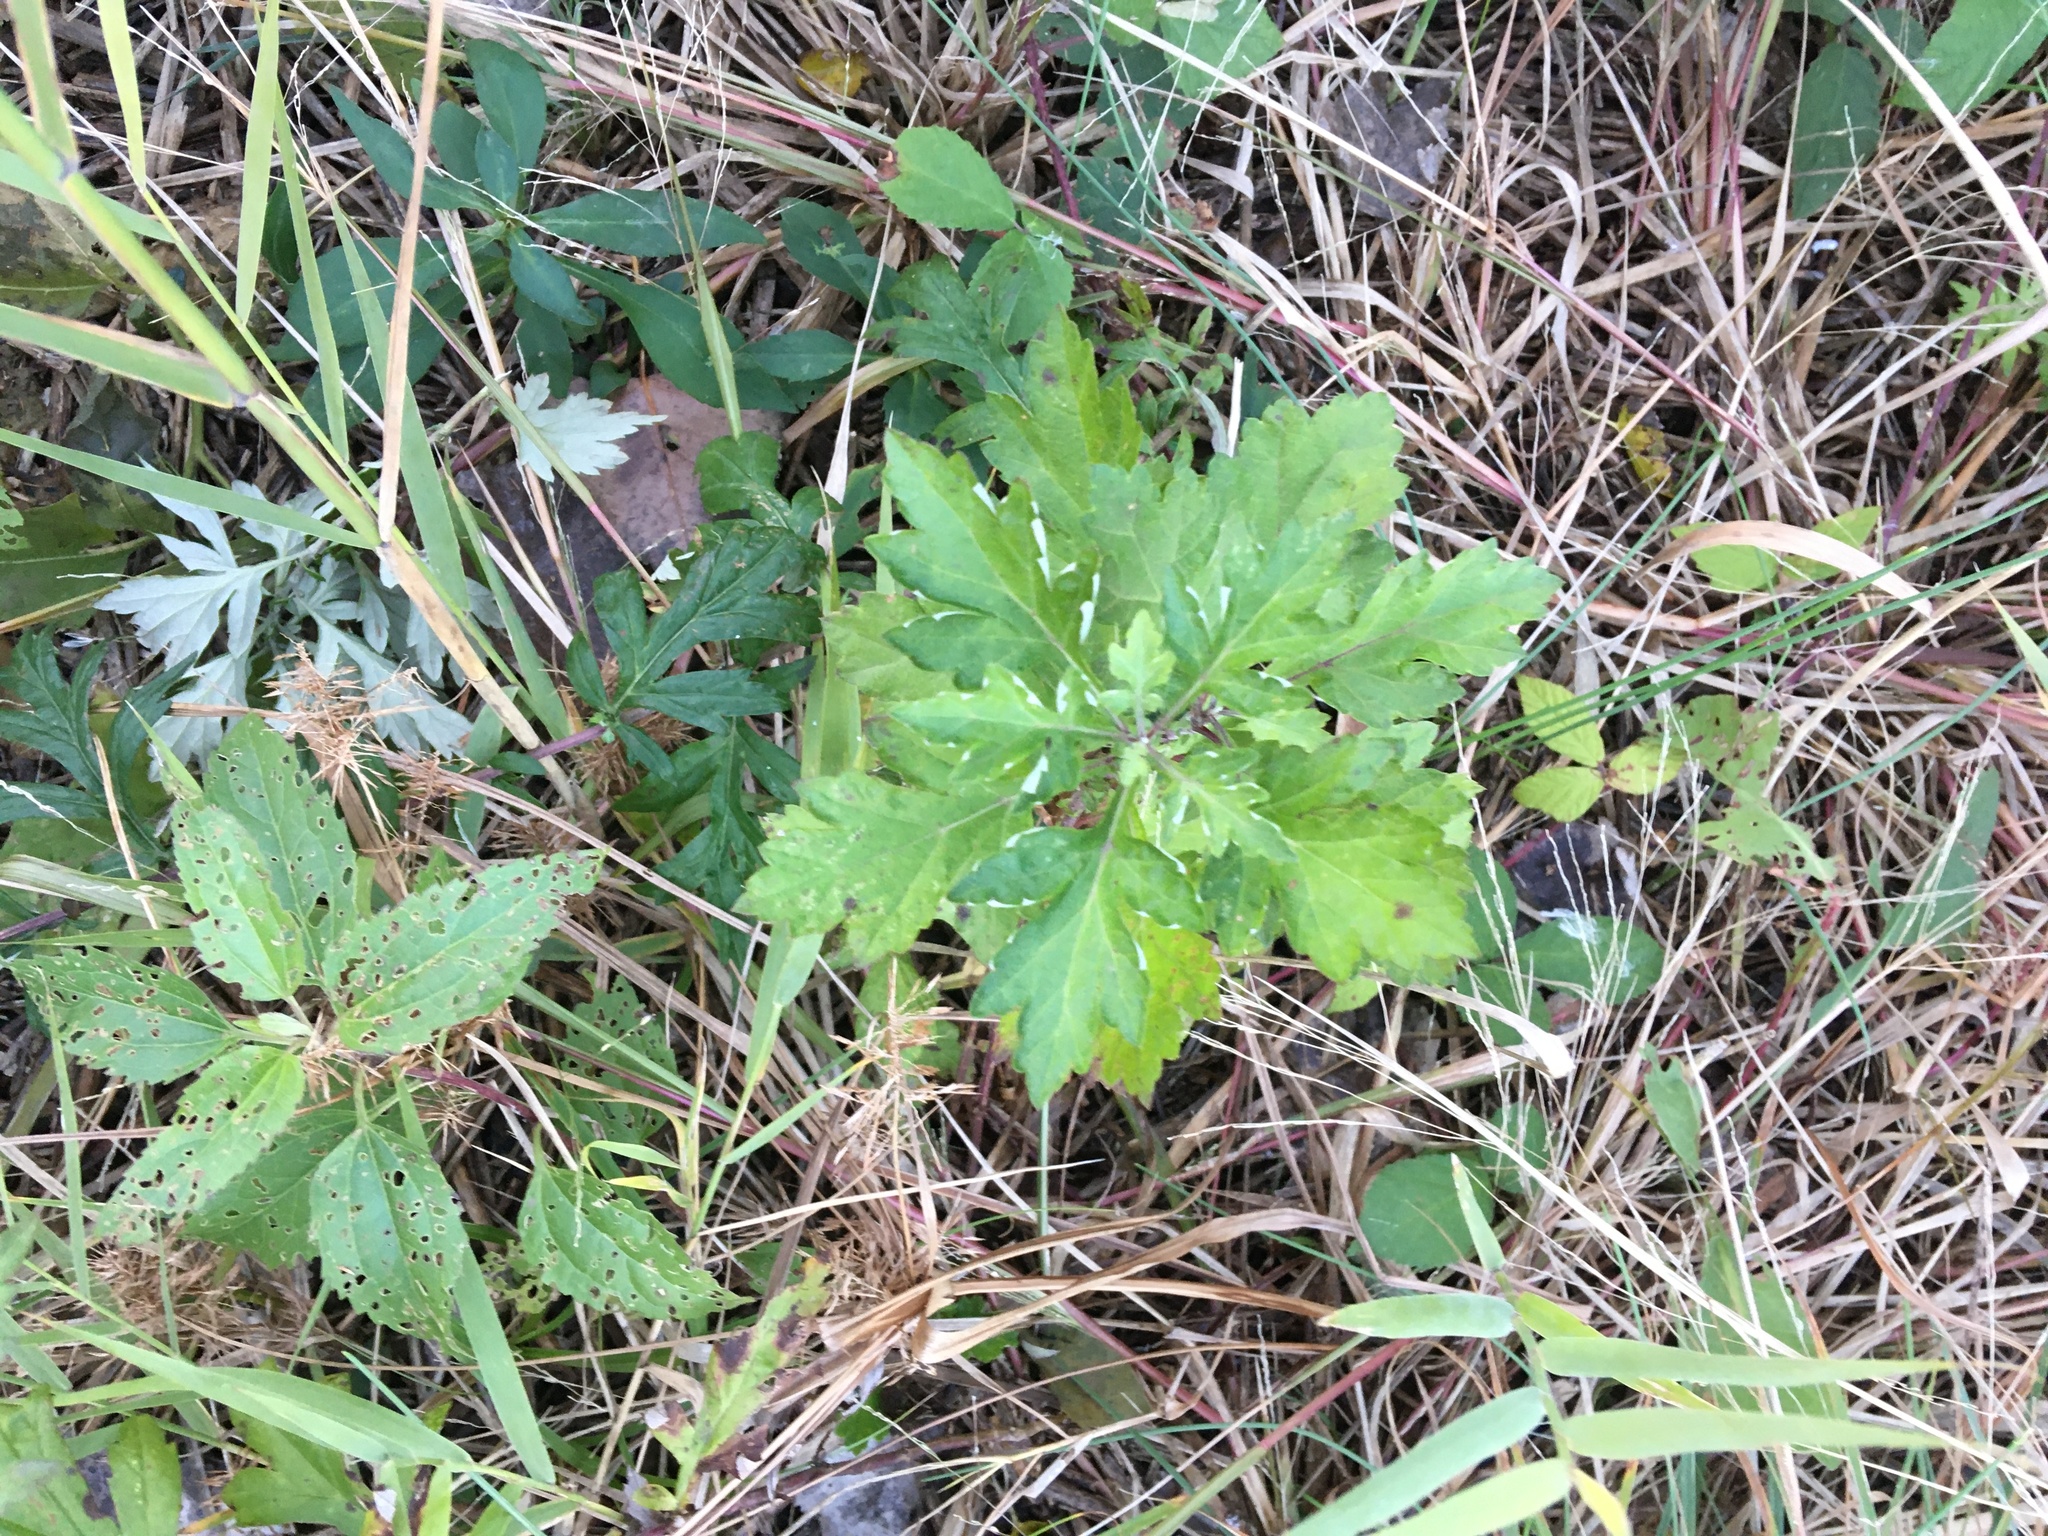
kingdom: Plantae
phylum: Tracheophyta
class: Magnoliopsida
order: Asterales
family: Asteraceae
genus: Artemisia
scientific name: Artemisia vulgaris
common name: Mugwort
